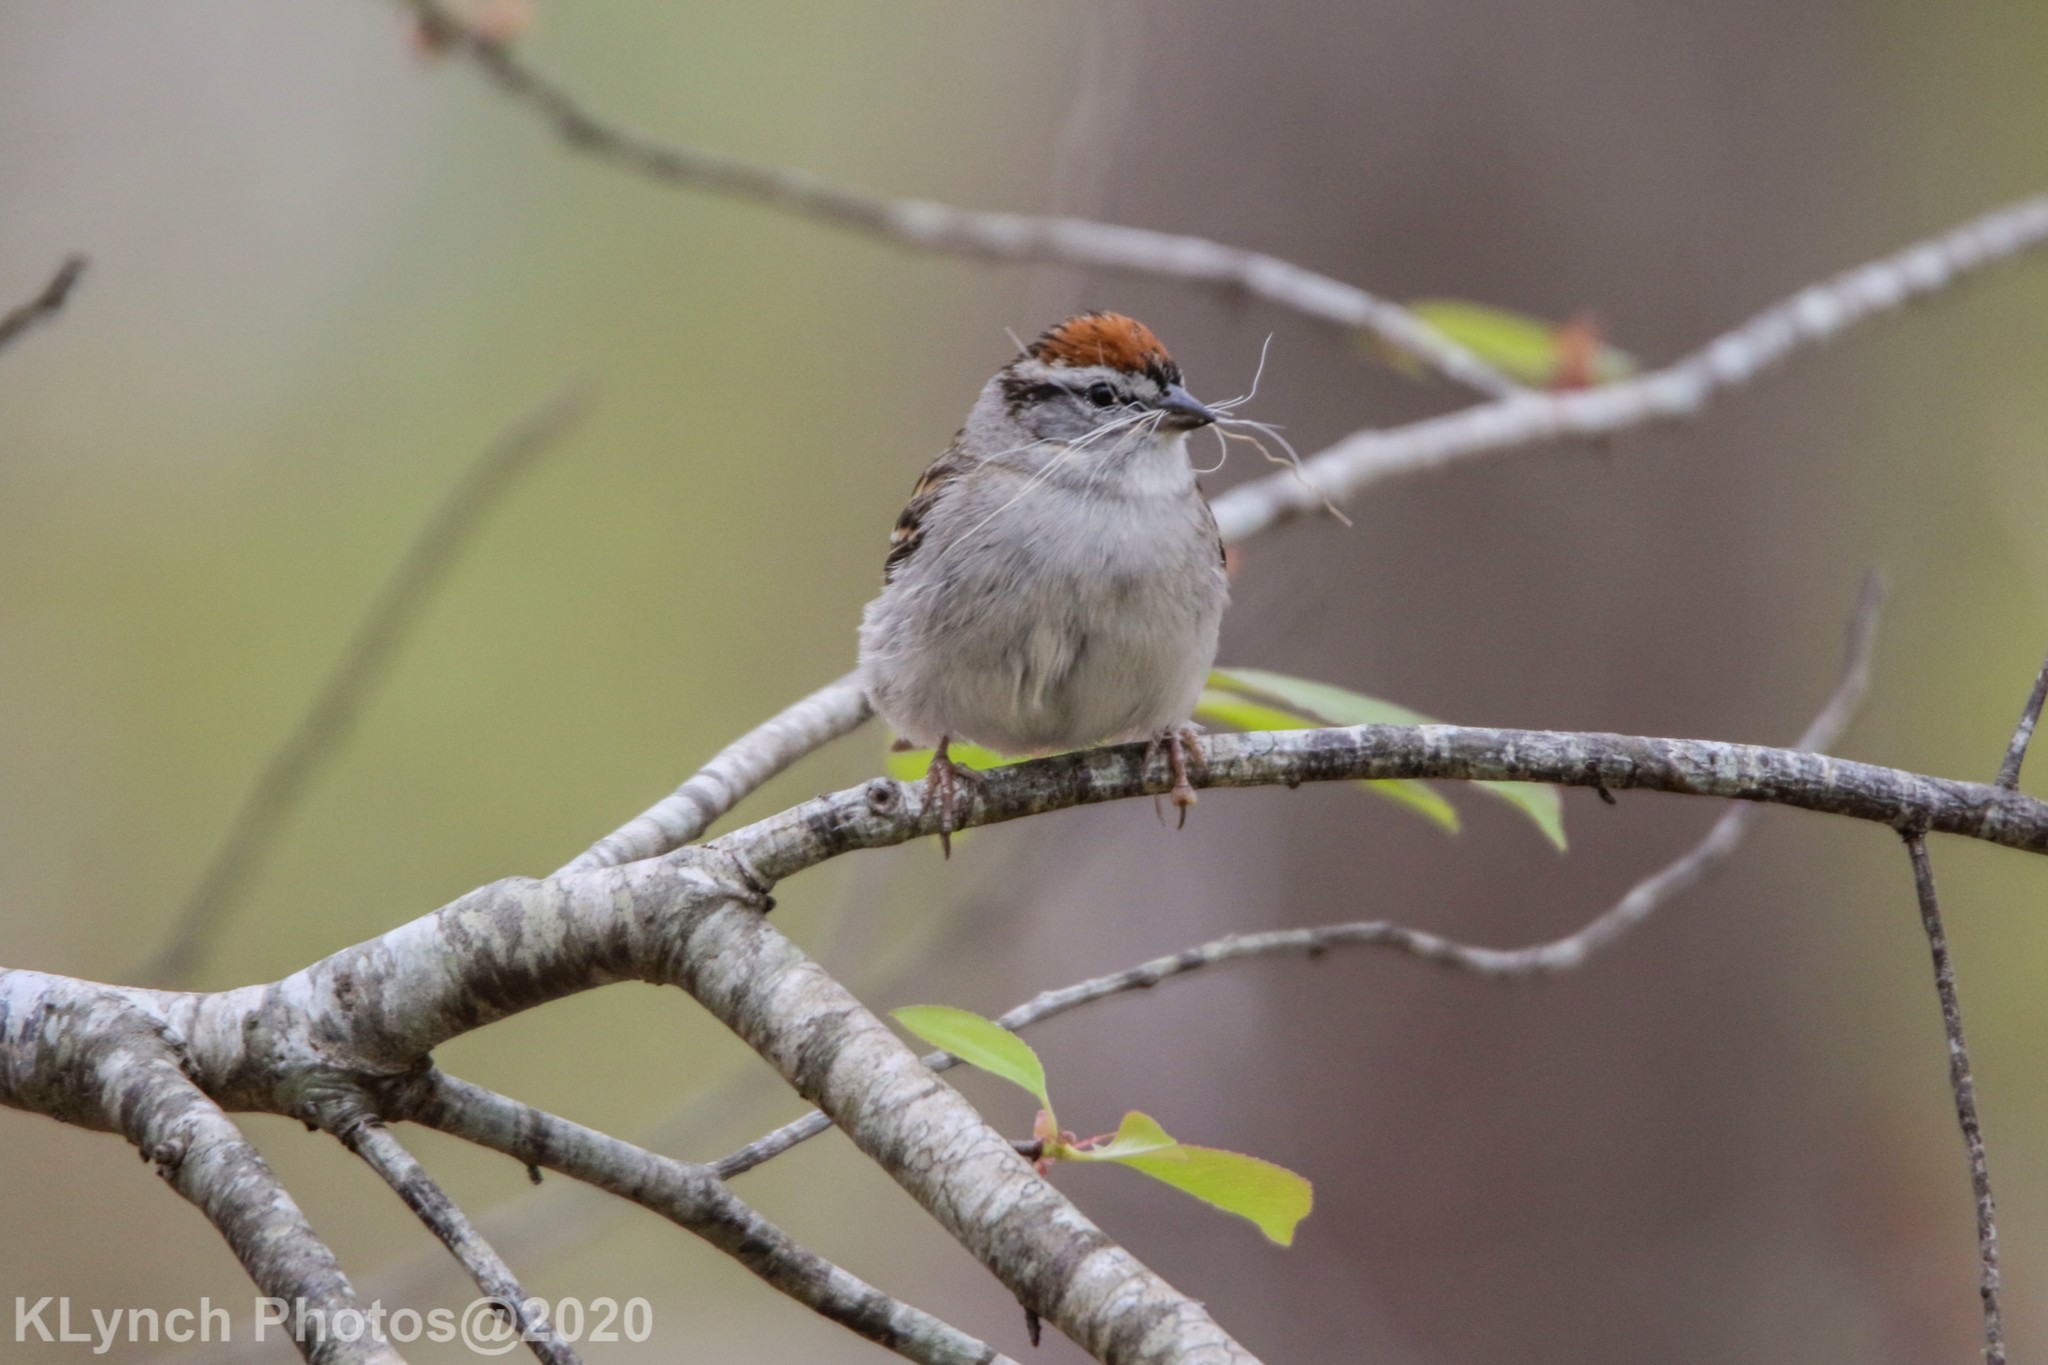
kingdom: Animalia
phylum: Chordata
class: Aves
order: Passeriformes
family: Passerellidae
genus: Spizella
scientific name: Spizella passerina
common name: Chipping sparrow
